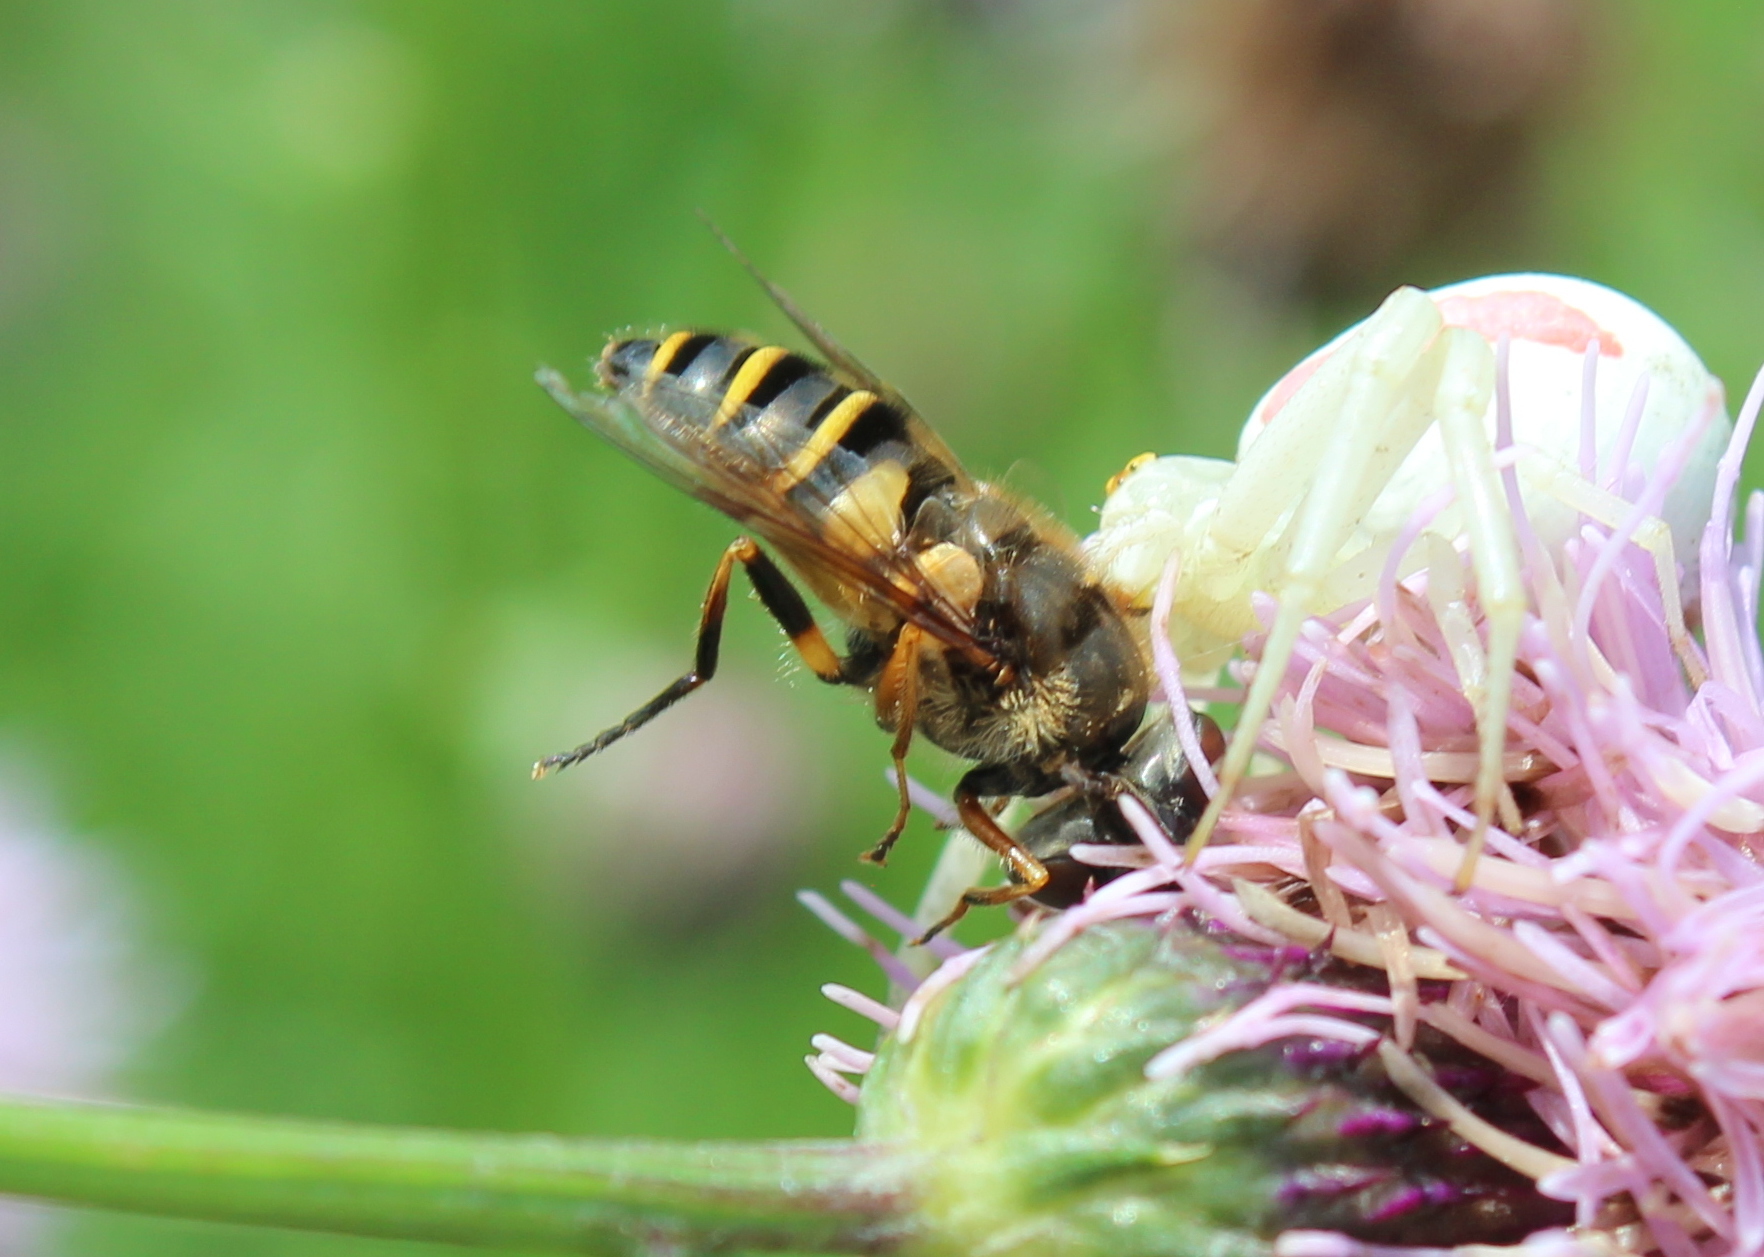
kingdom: Animalia
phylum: Arthropoda
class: Insecta
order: Diptera
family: Syrphidae
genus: Eristalis
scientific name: Eristalis transversa
